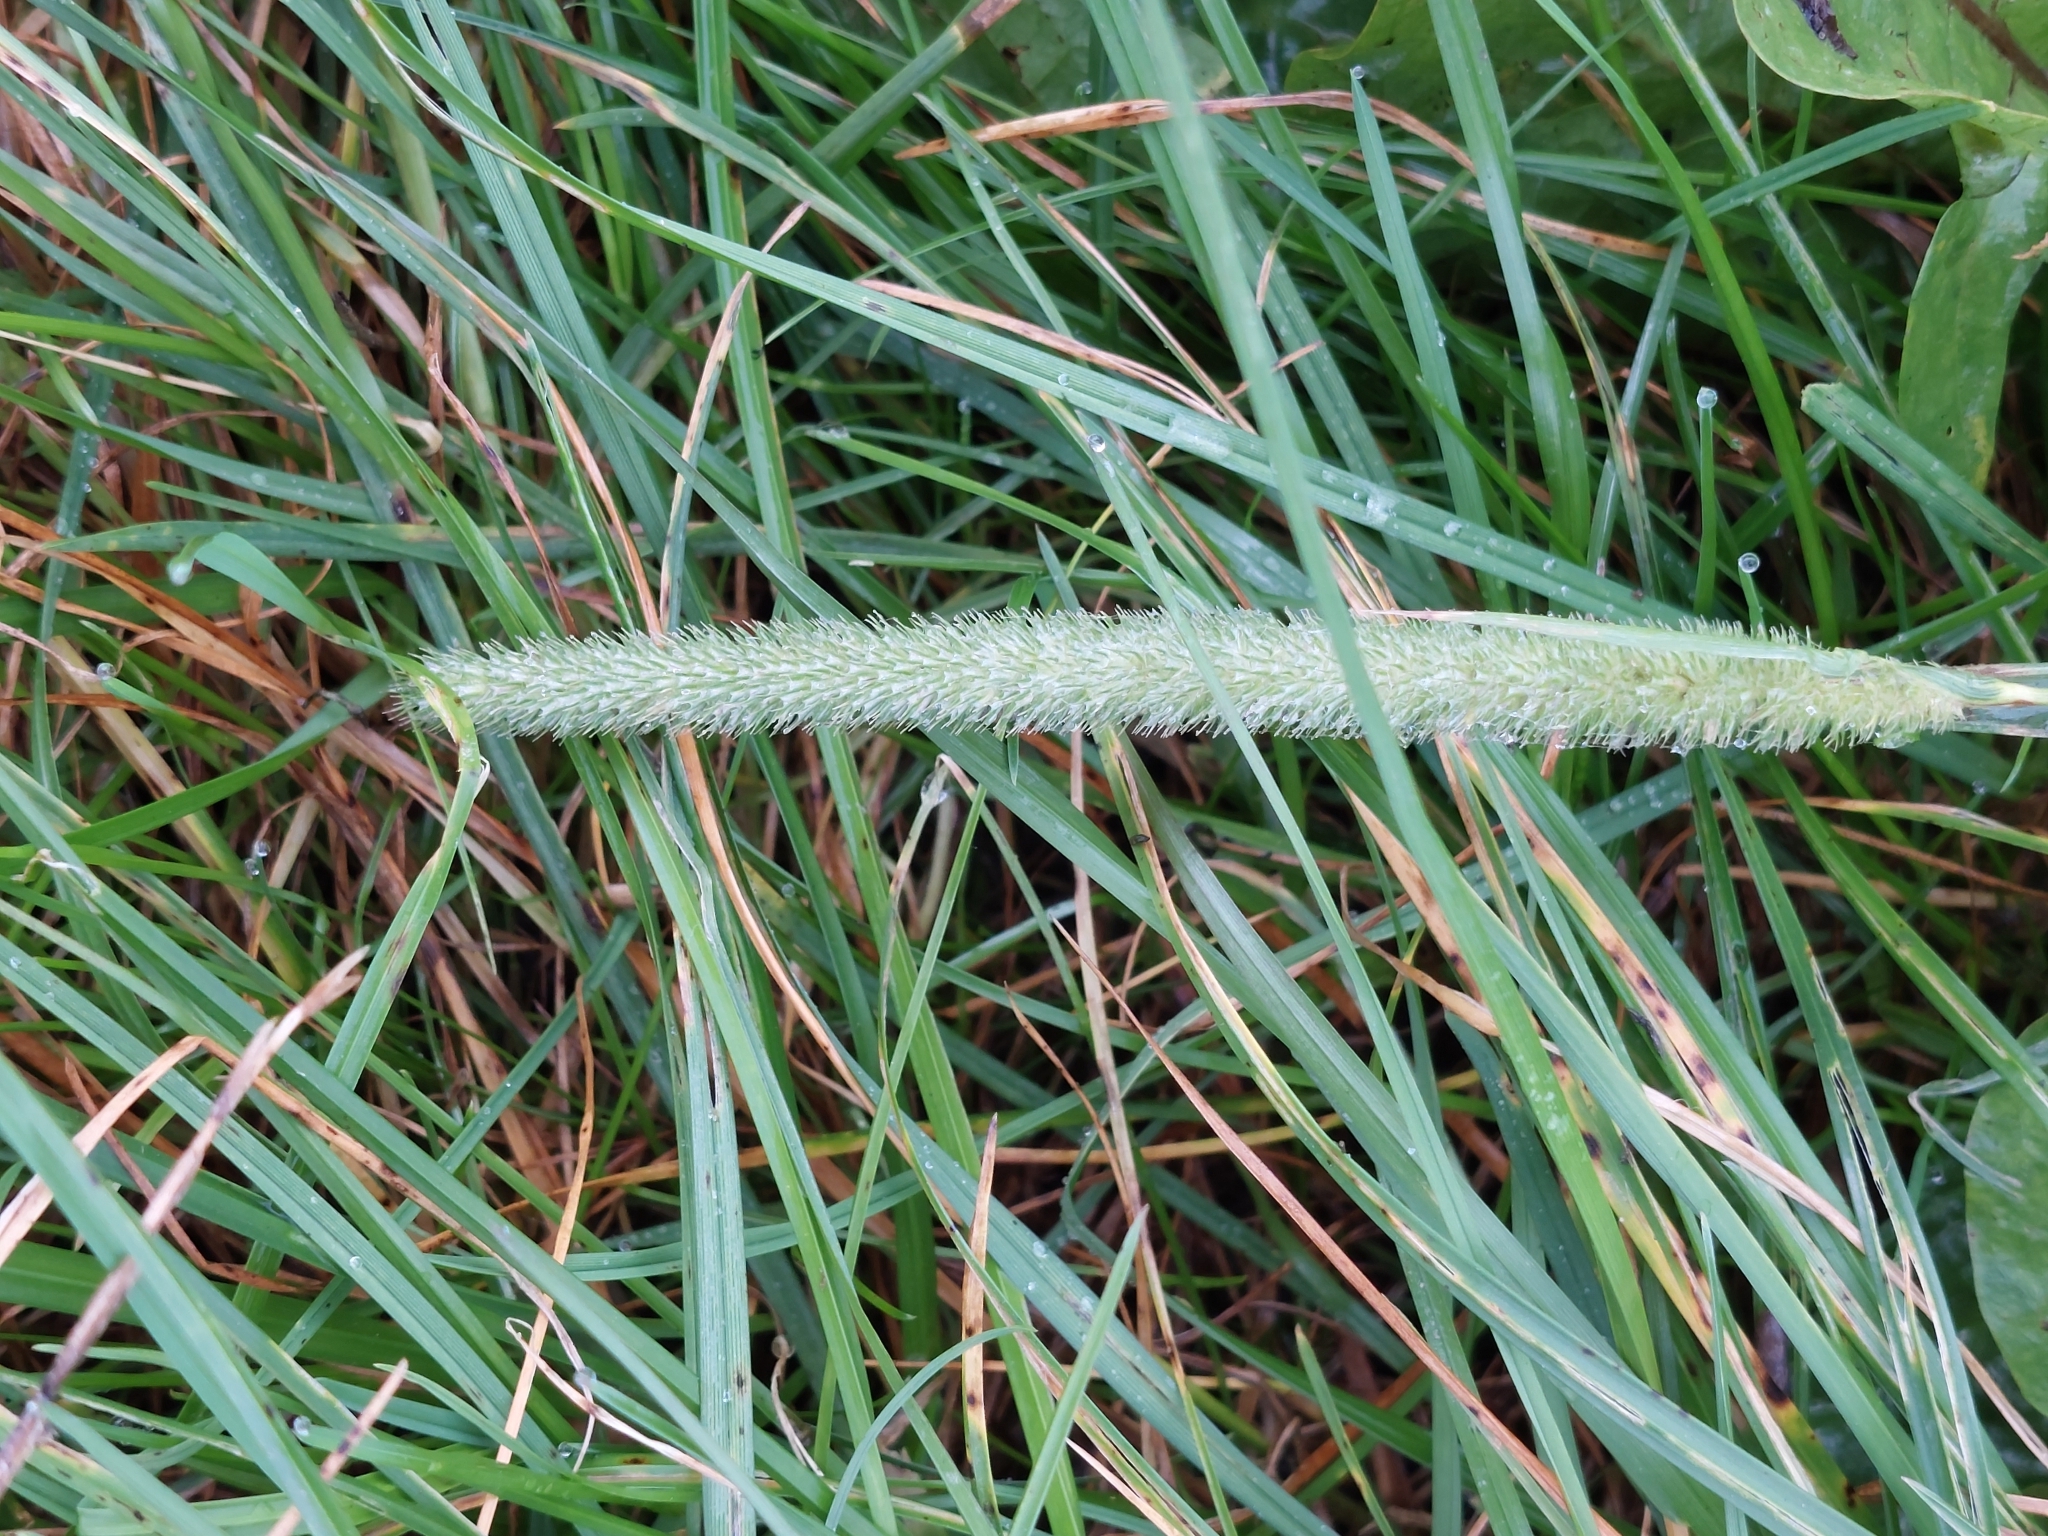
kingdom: Plantae
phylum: Tracheophyta
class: Liliopsida
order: Poales
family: Poaceae
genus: Phleum
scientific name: Phleum pratense
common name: Timothy grass
